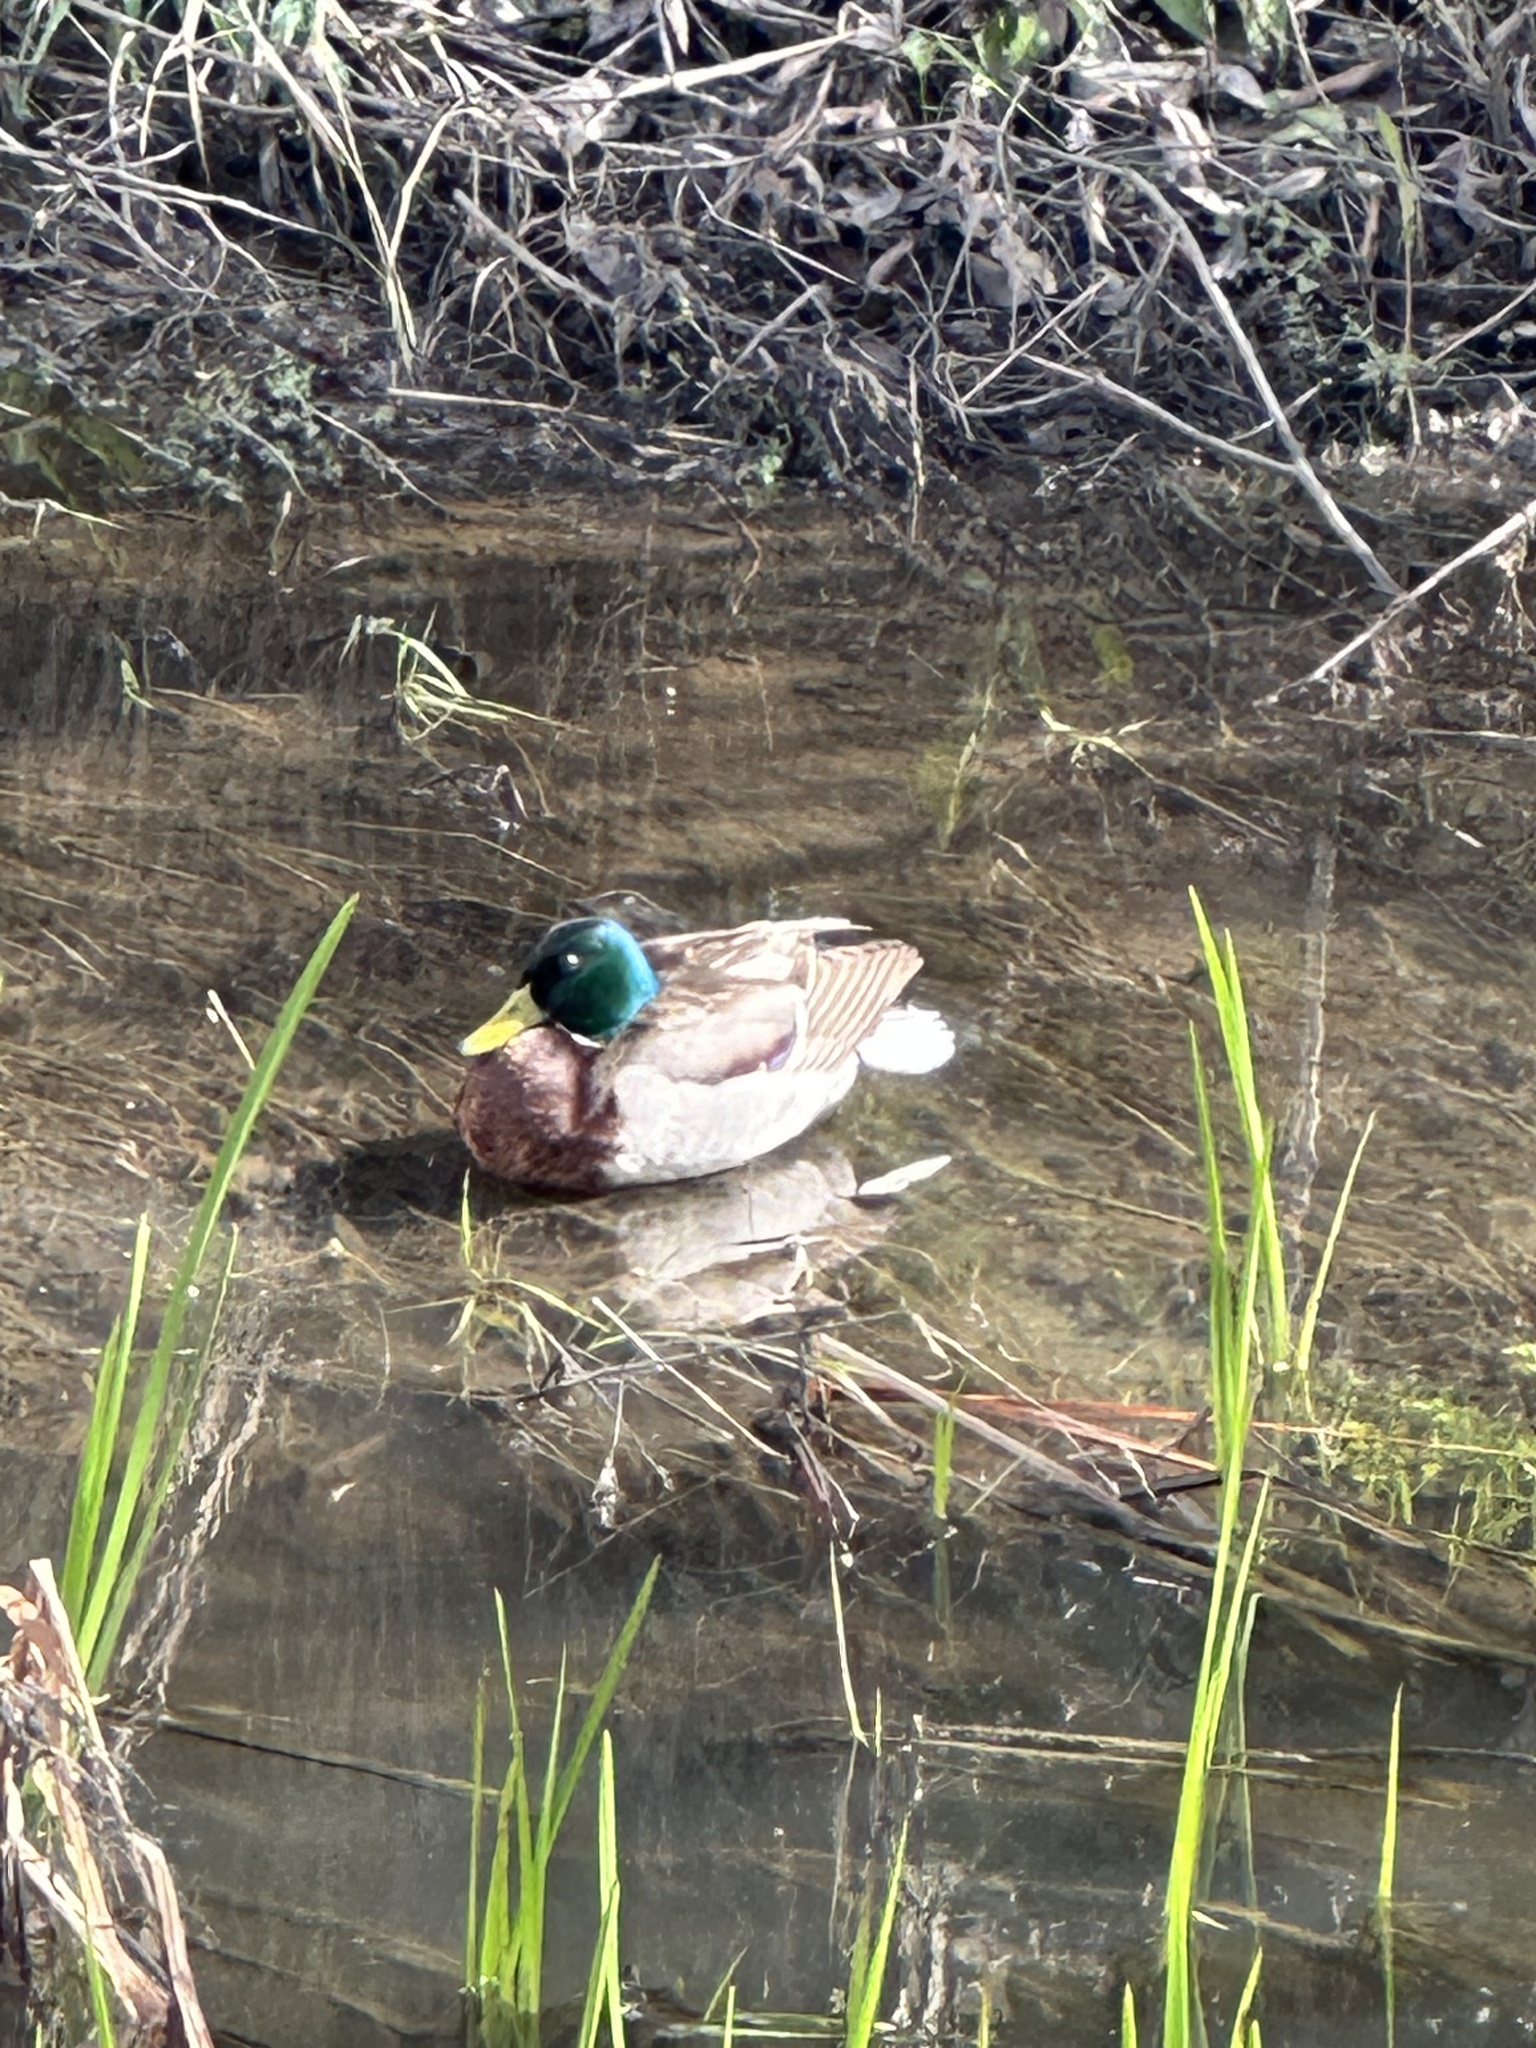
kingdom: Animalia
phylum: Chordata
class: Aves
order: Anseriformes
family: Anatidae
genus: Anas
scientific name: Anas platyrhynchos
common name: Mallard
